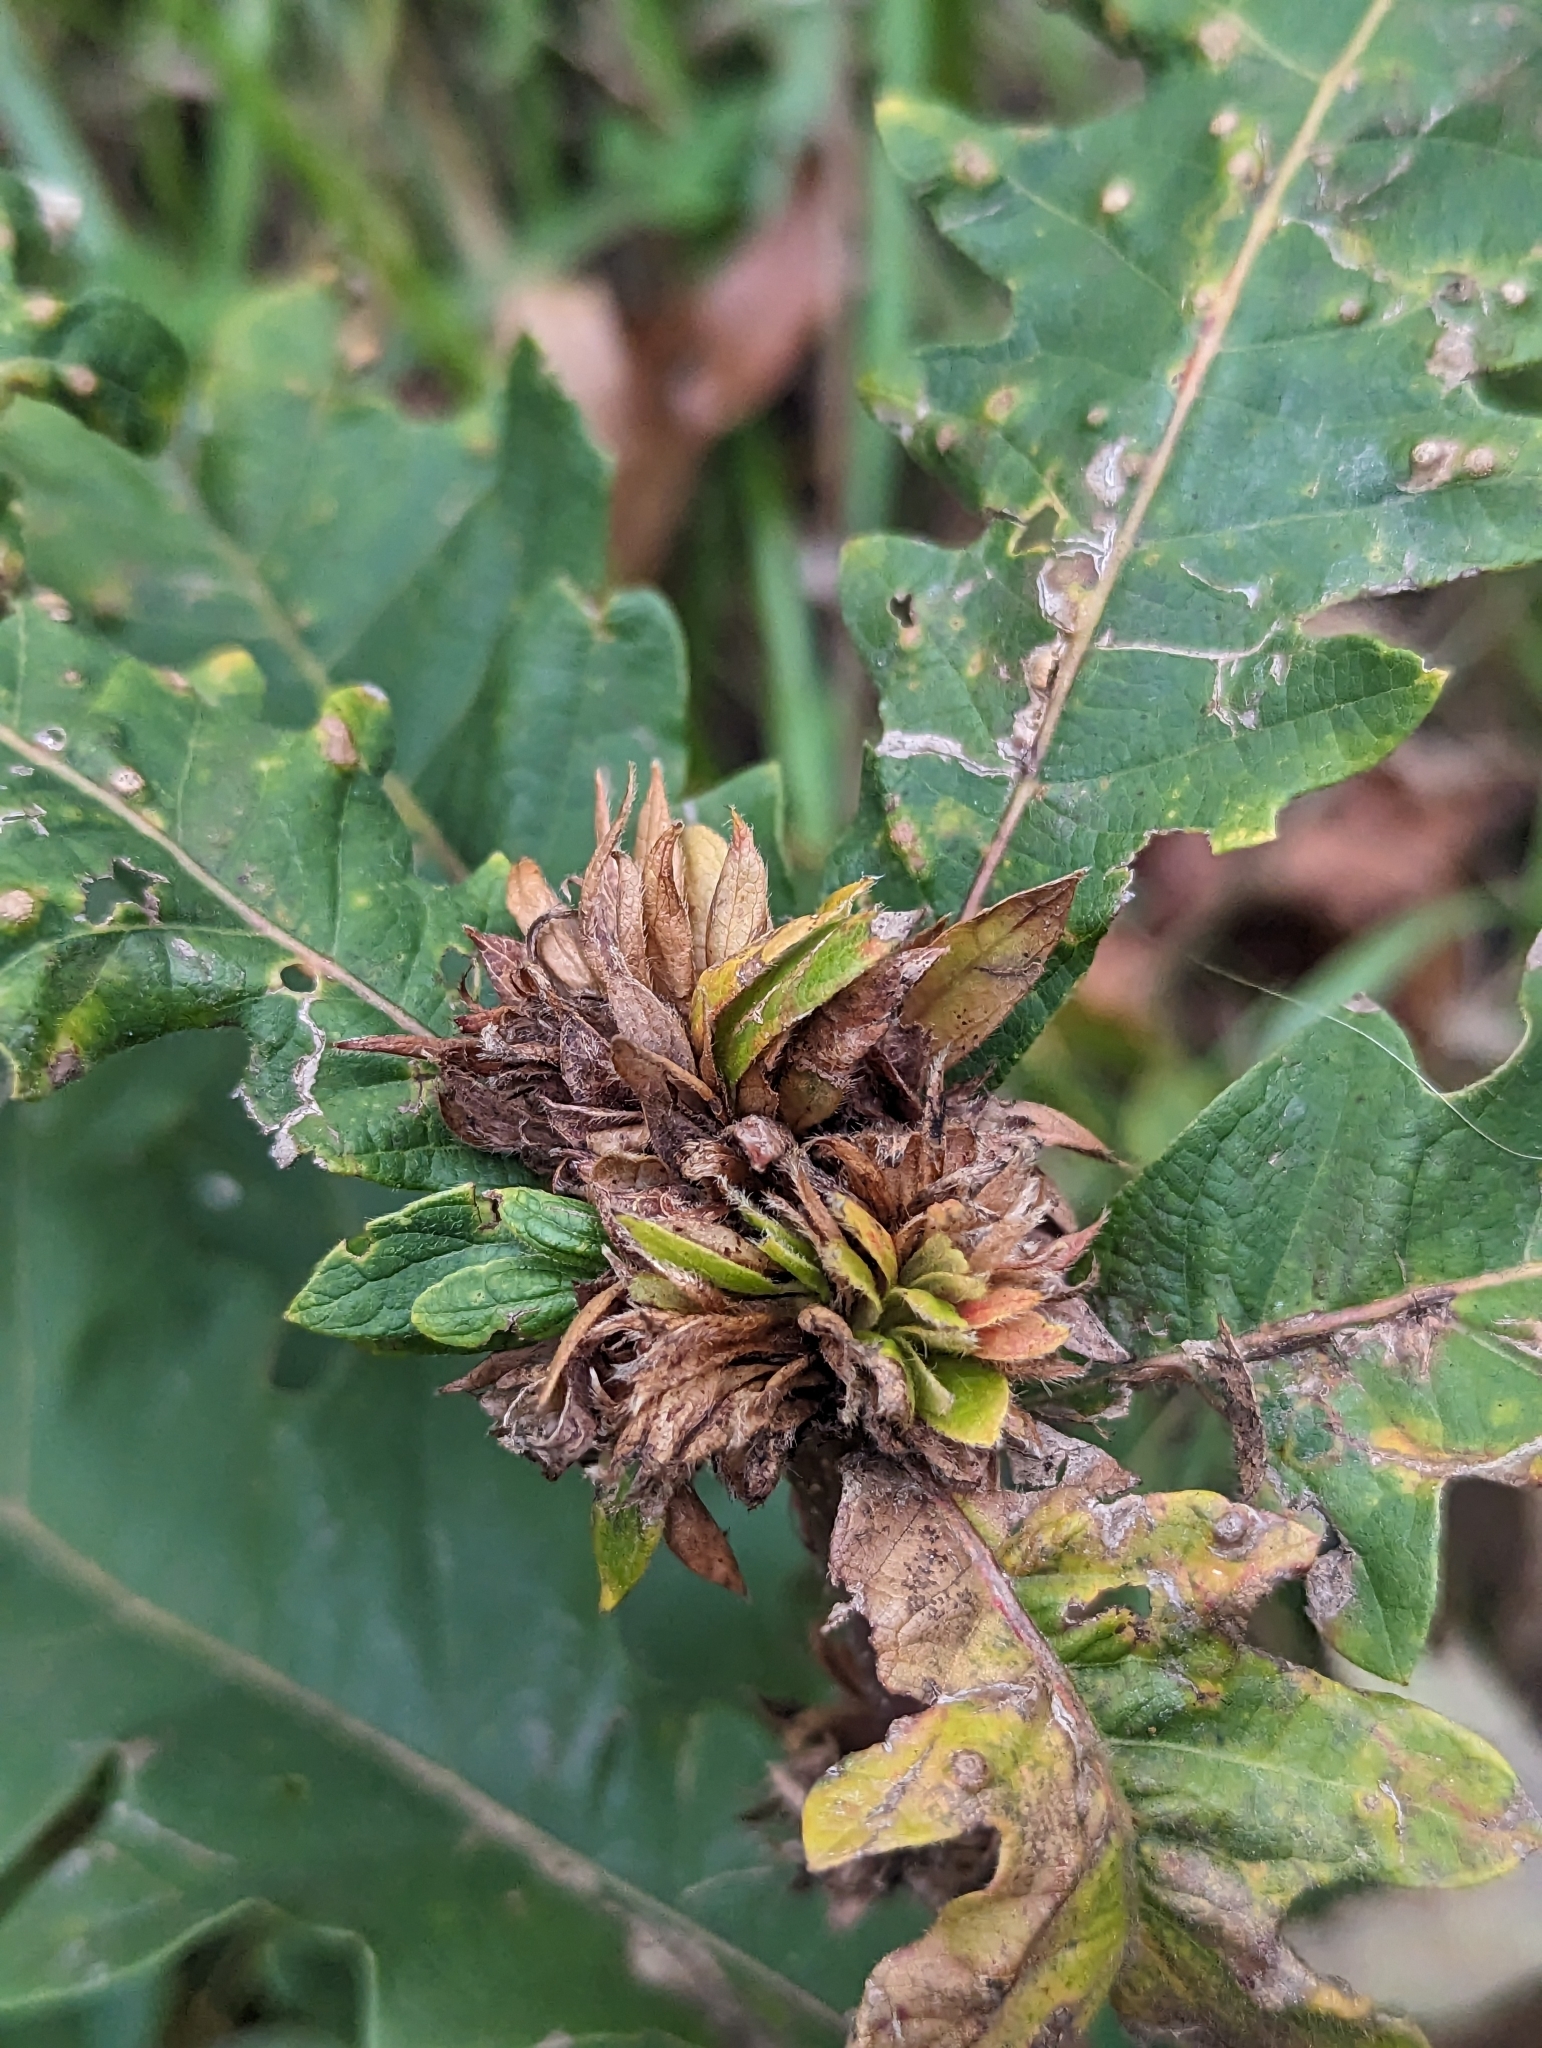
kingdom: Animalia
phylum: Arthropoda
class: Insecta
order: Hymenoptera
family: Cynipidae
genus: Andricus
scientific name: Andricus
